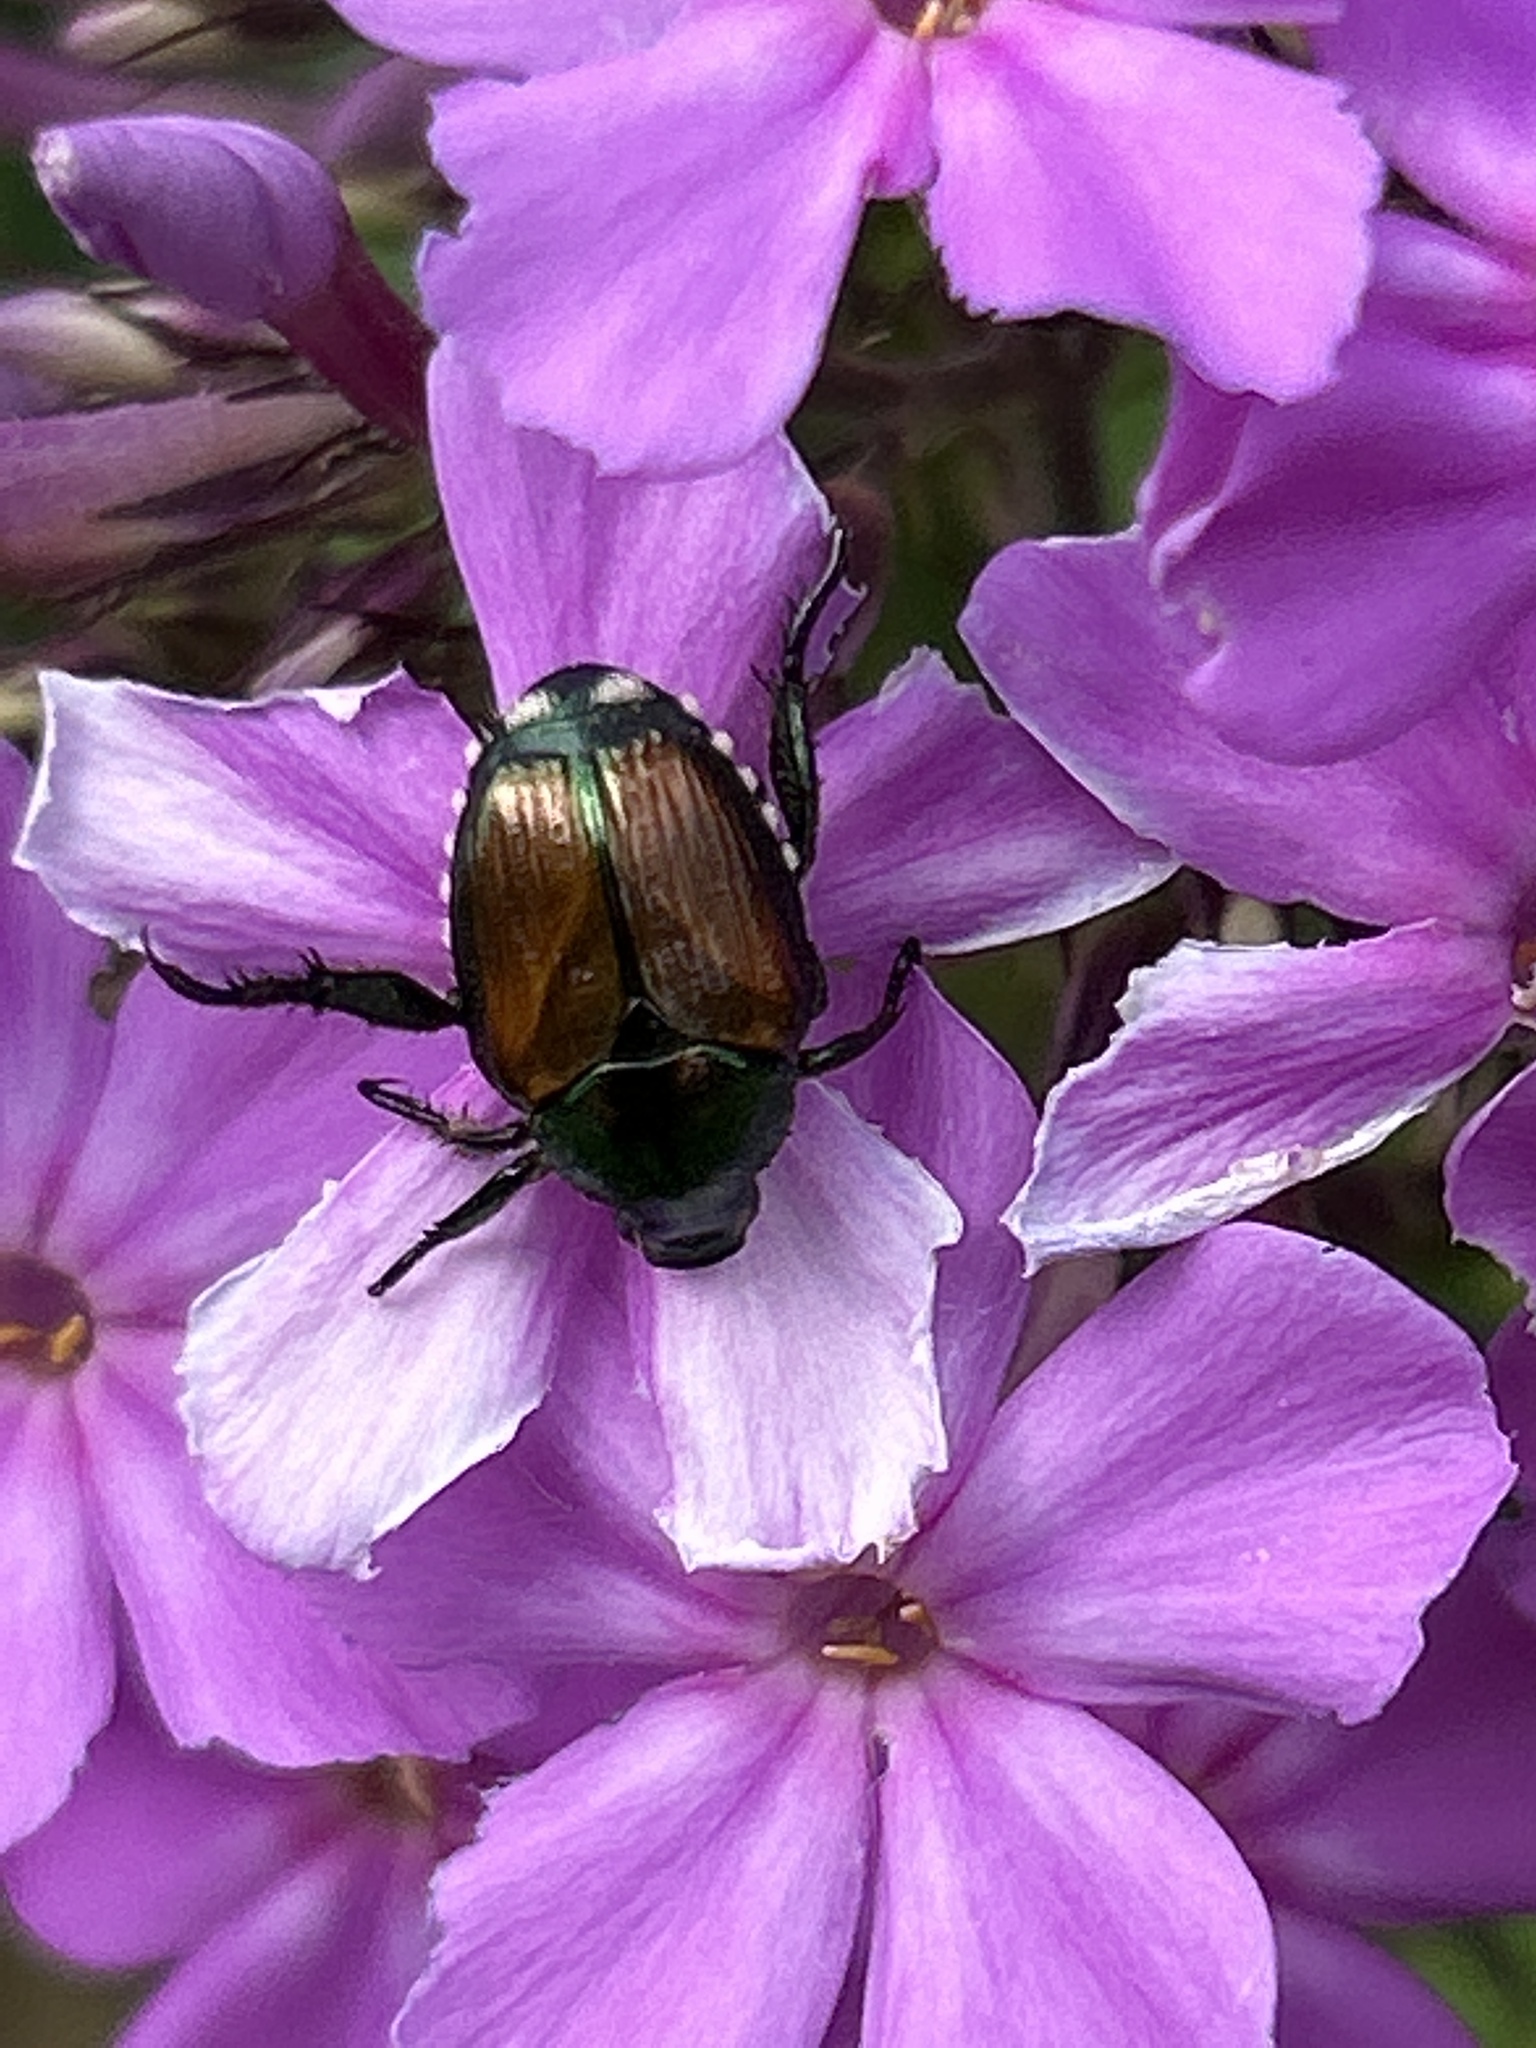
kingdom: Animalia
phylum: Arthropoda
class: Insecta
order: Coleoptera
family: Scarabaeidae
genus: Popillia
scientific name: Popillia japonica
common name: Japanese beetle
